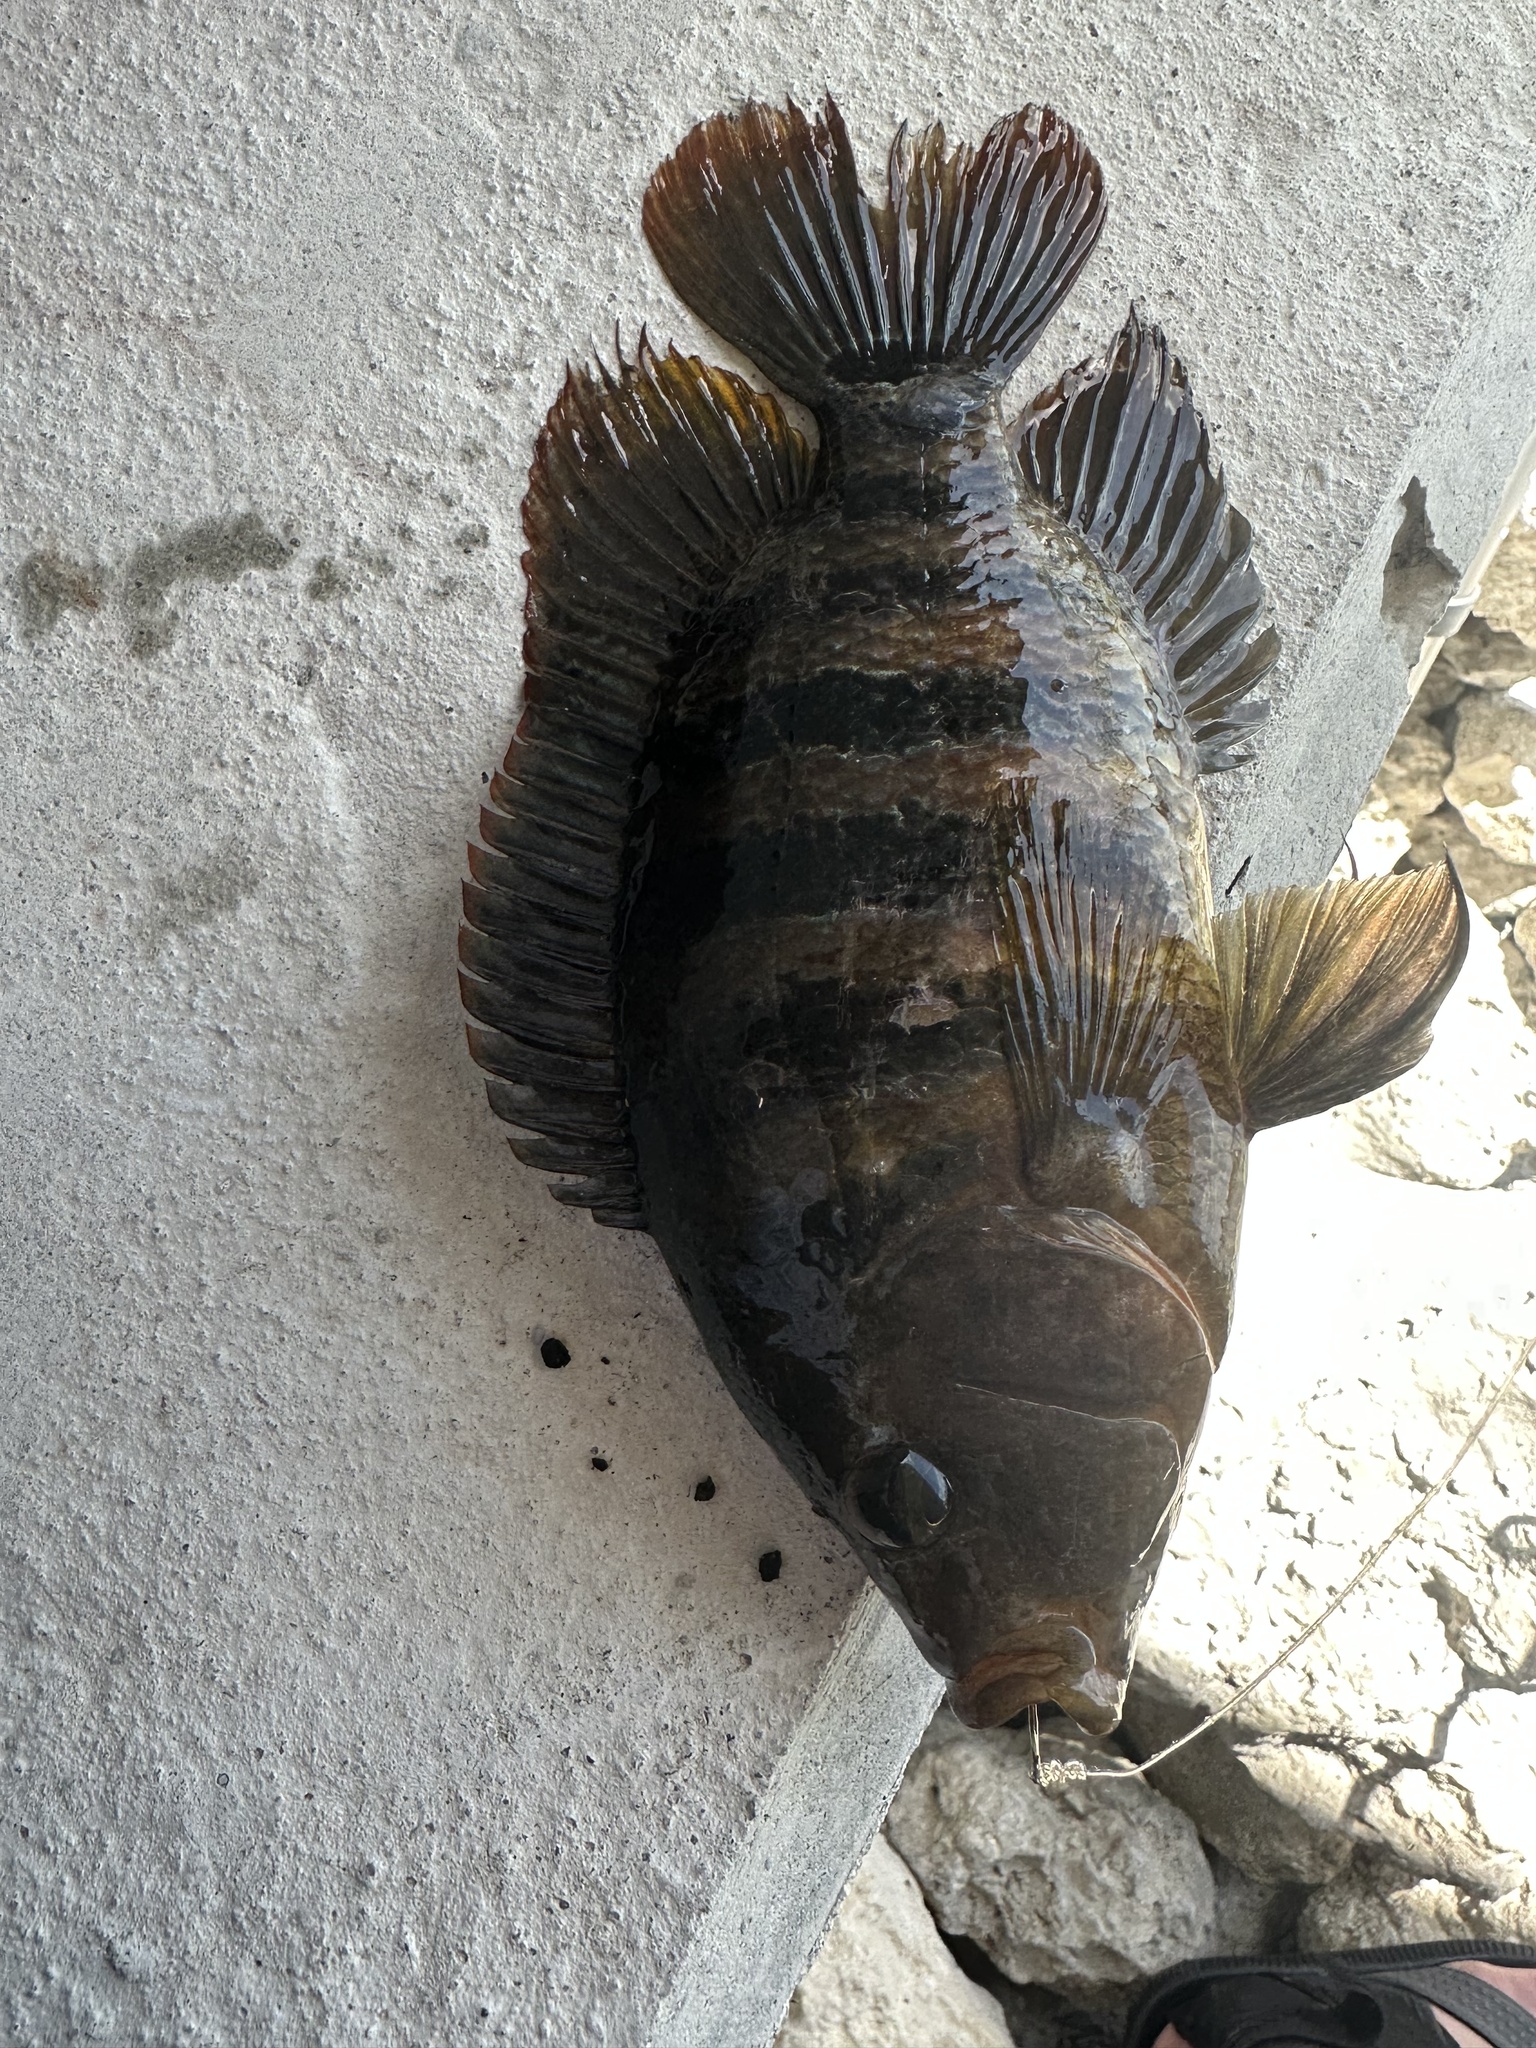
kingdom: Animalia
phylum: Chordata
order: Perciformes
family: Cichlidae
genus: Mayaheros
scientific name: Mayaheros urophthalmus
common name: Mayan cichlid
